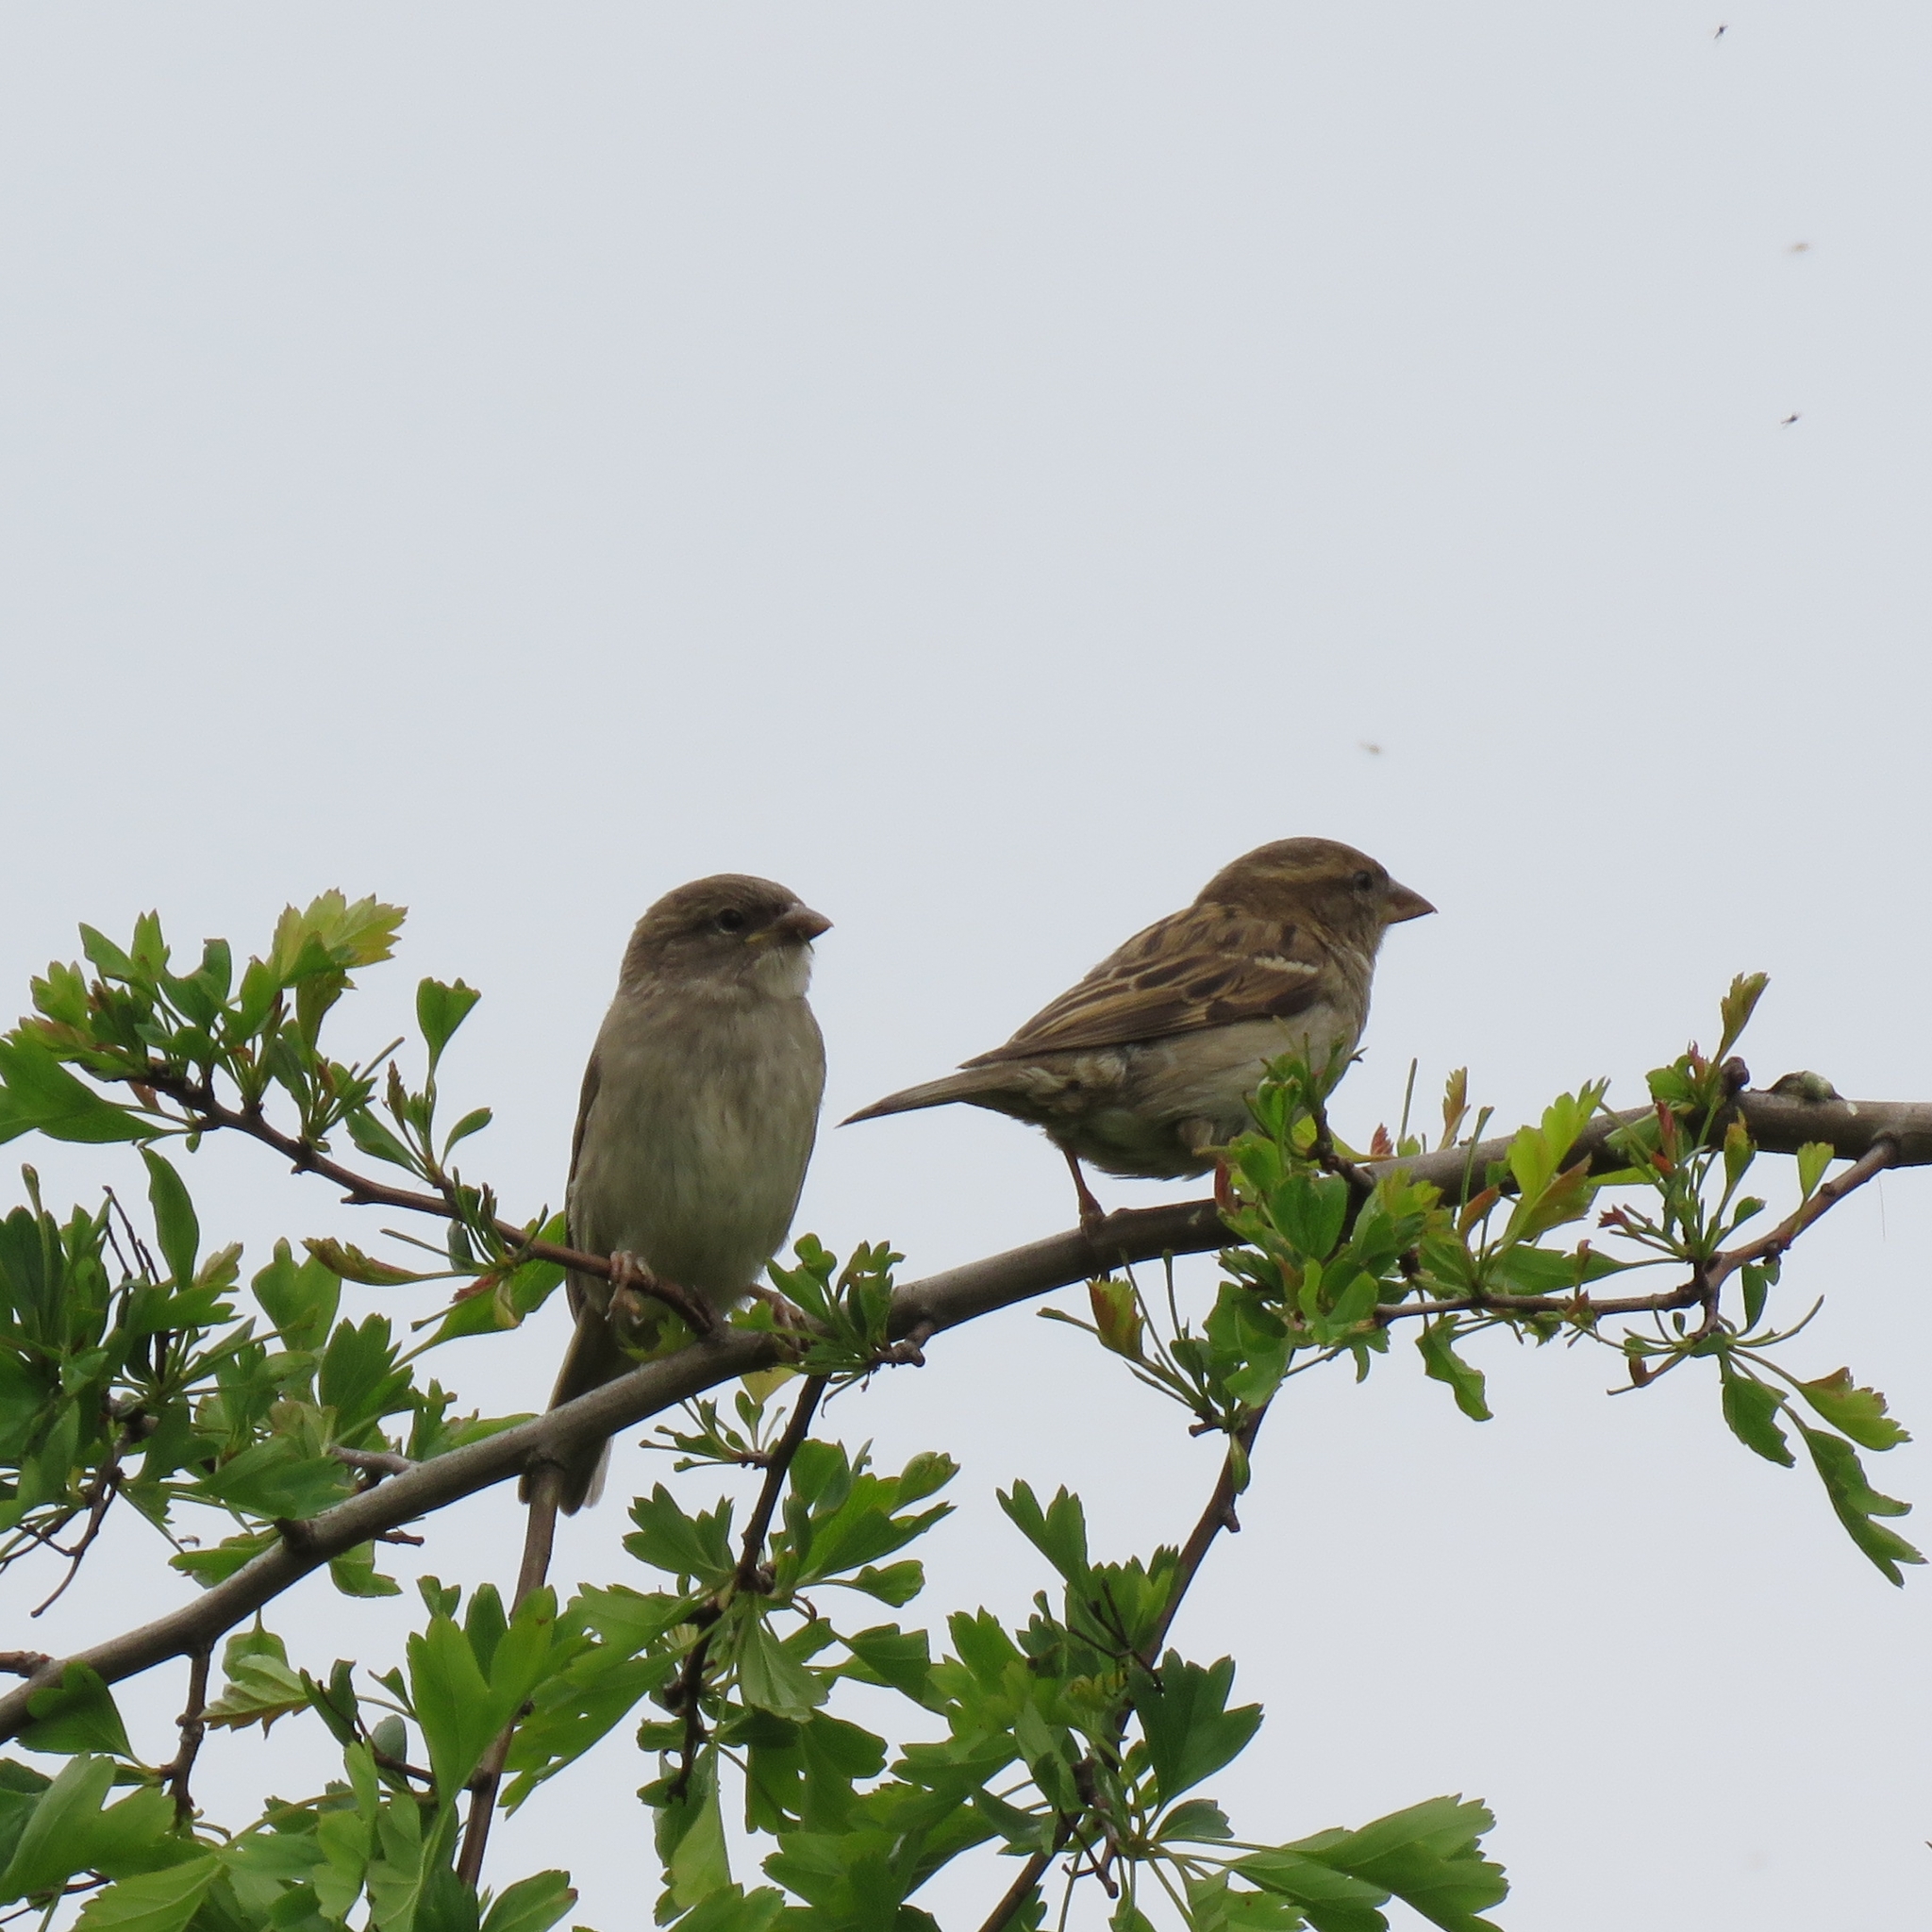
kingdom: Animalia
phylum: Chordata
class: Aves
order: Passeriformes
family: Passeridae
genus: Passer
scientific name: Passer domesticus
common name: House sparrow
